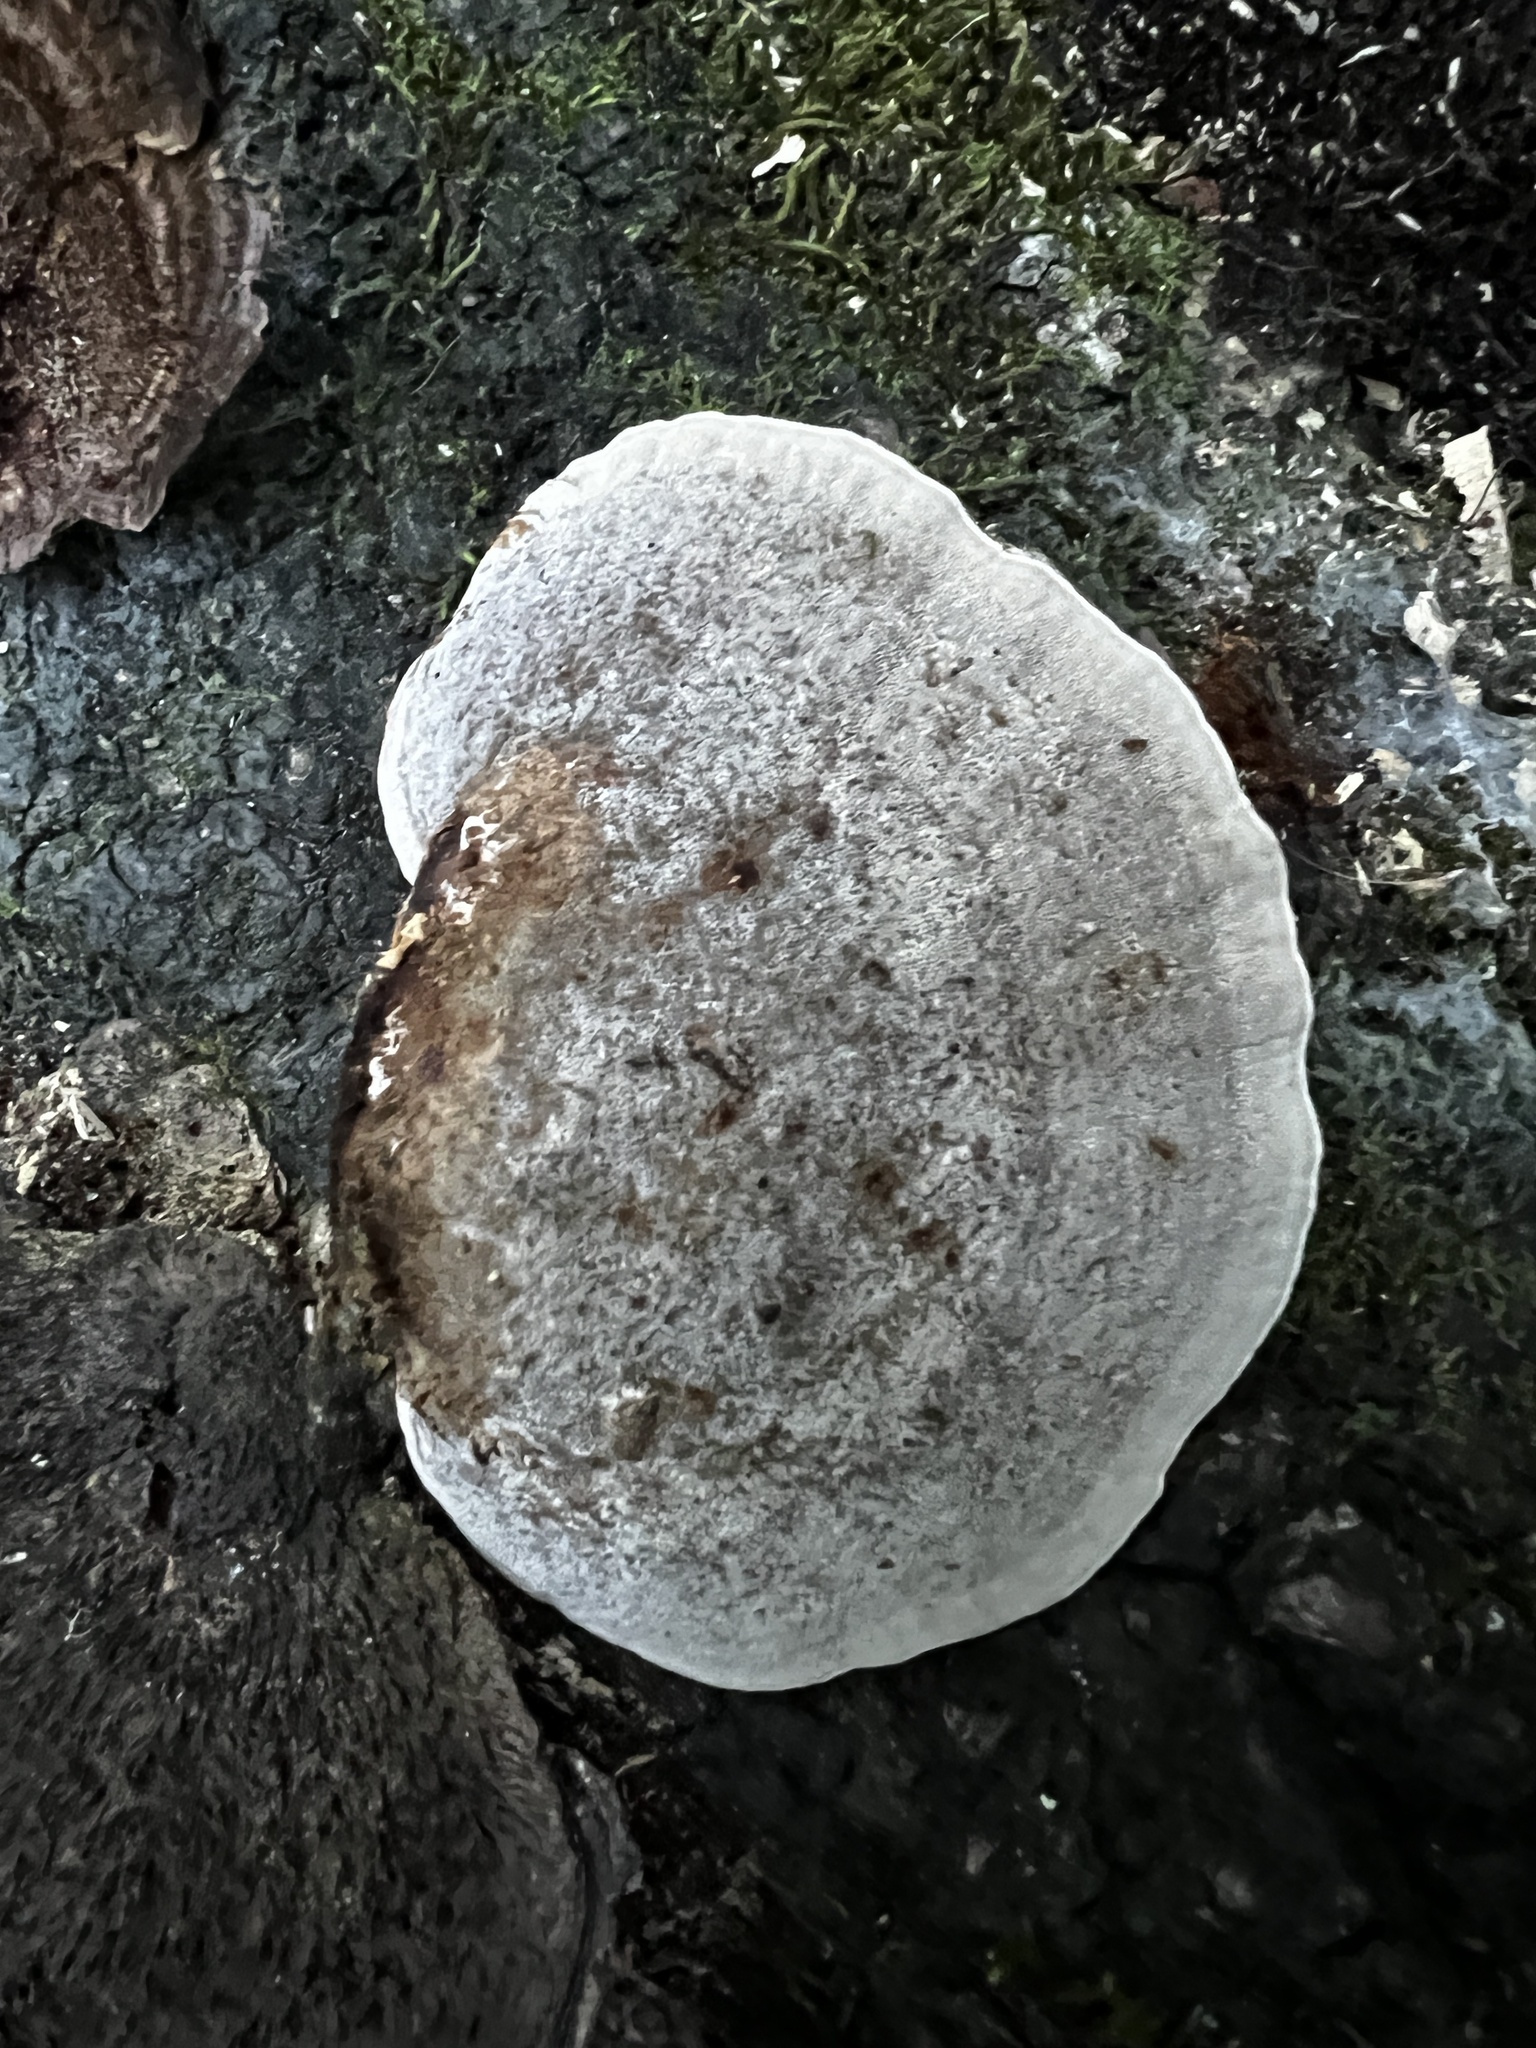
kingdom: Fungi
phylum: Basidiomycota
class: Agaricomycetes
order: Polyporales
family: Cerrenaceae
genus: Cerrena
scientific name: Cerrena hydnoides
